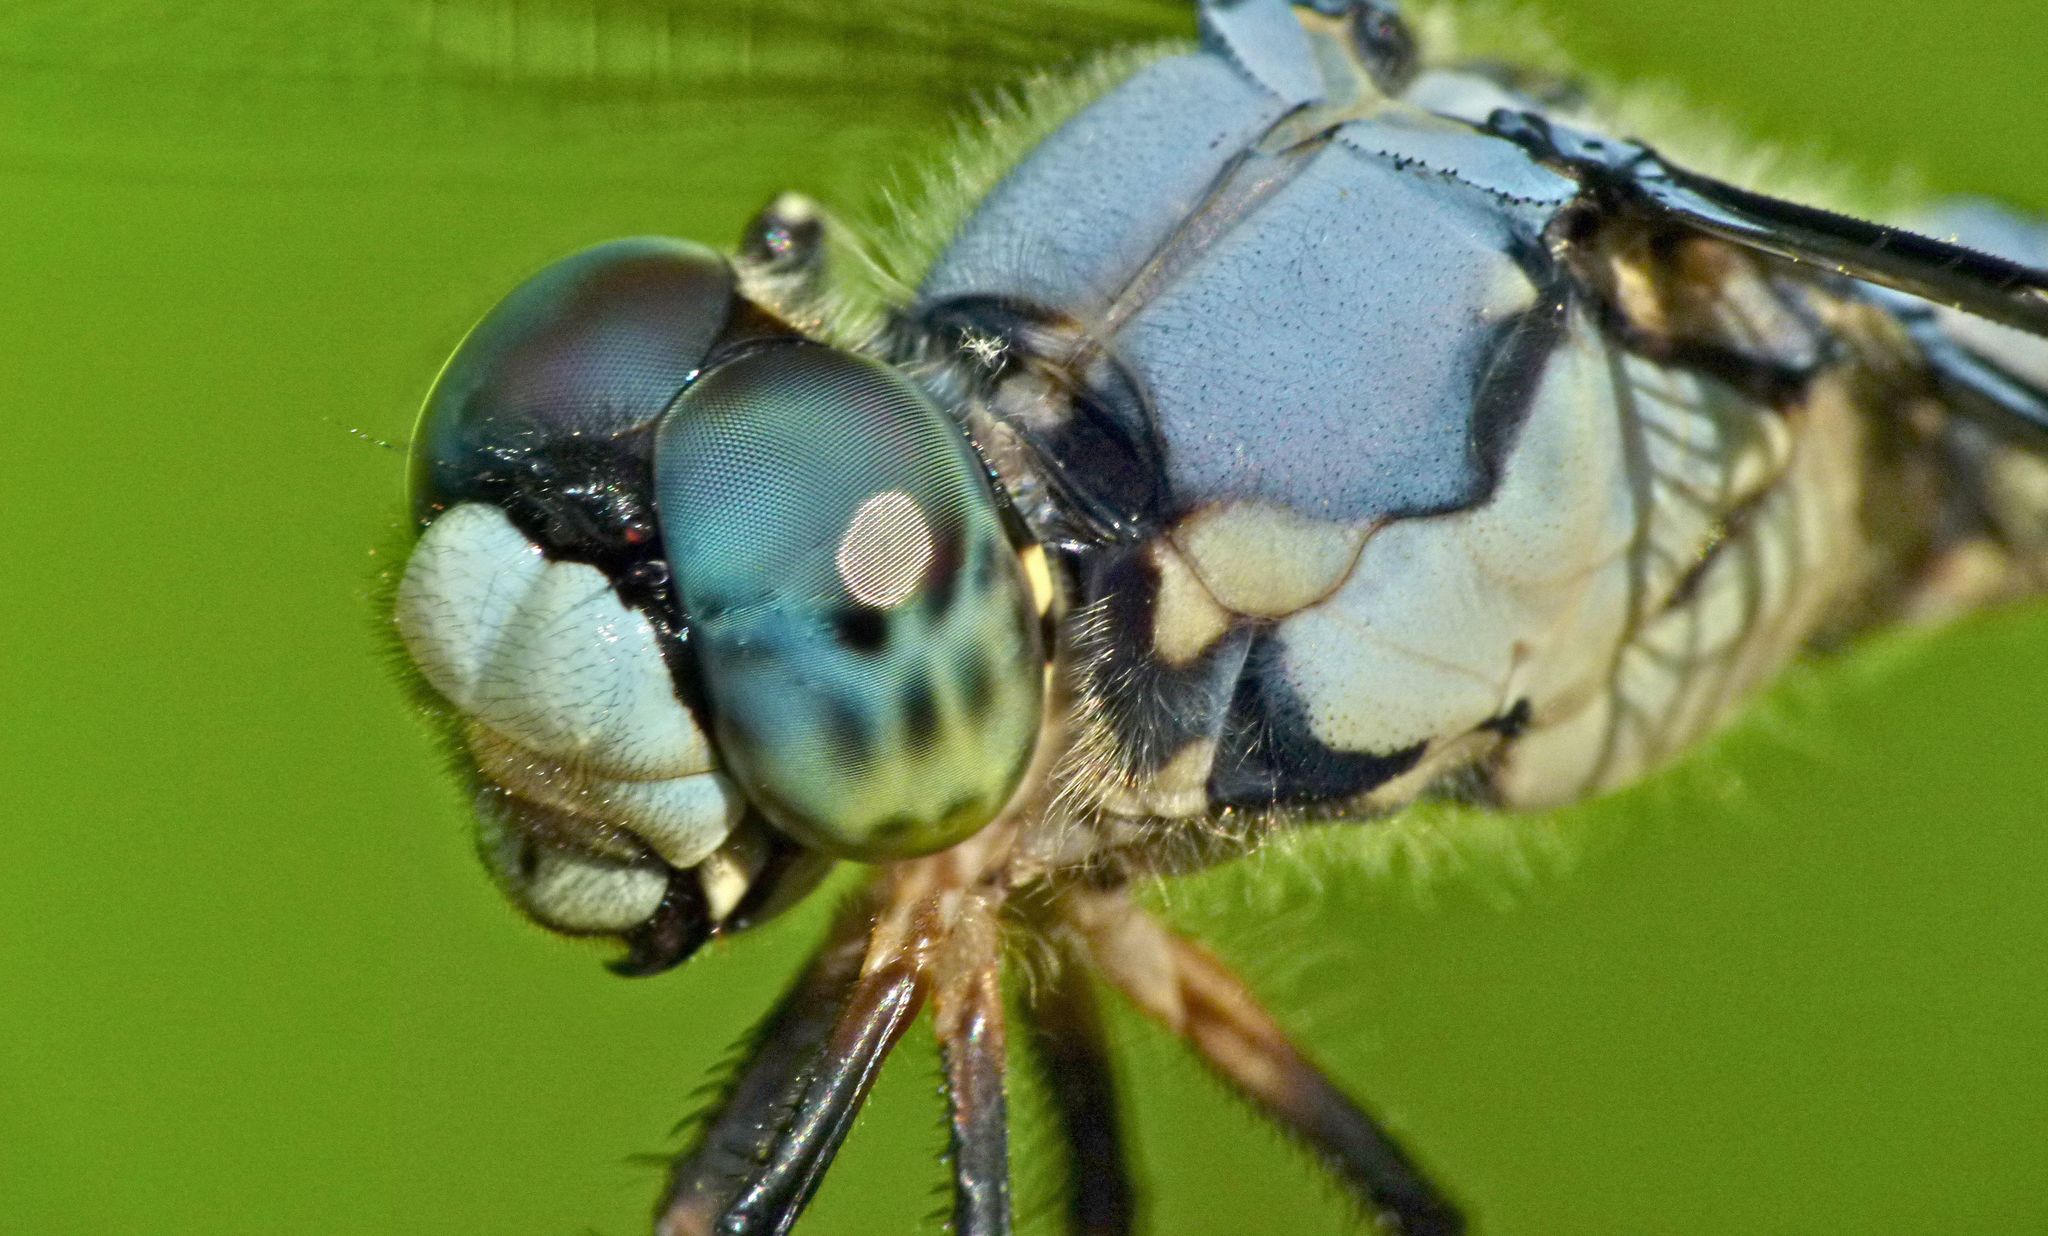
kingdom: Animalia
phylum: Arthropoda
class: Insecta
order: Odonata
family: Libellulidae
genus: Libellula
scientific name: Libellula vibrans
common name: Great blue skimmer
